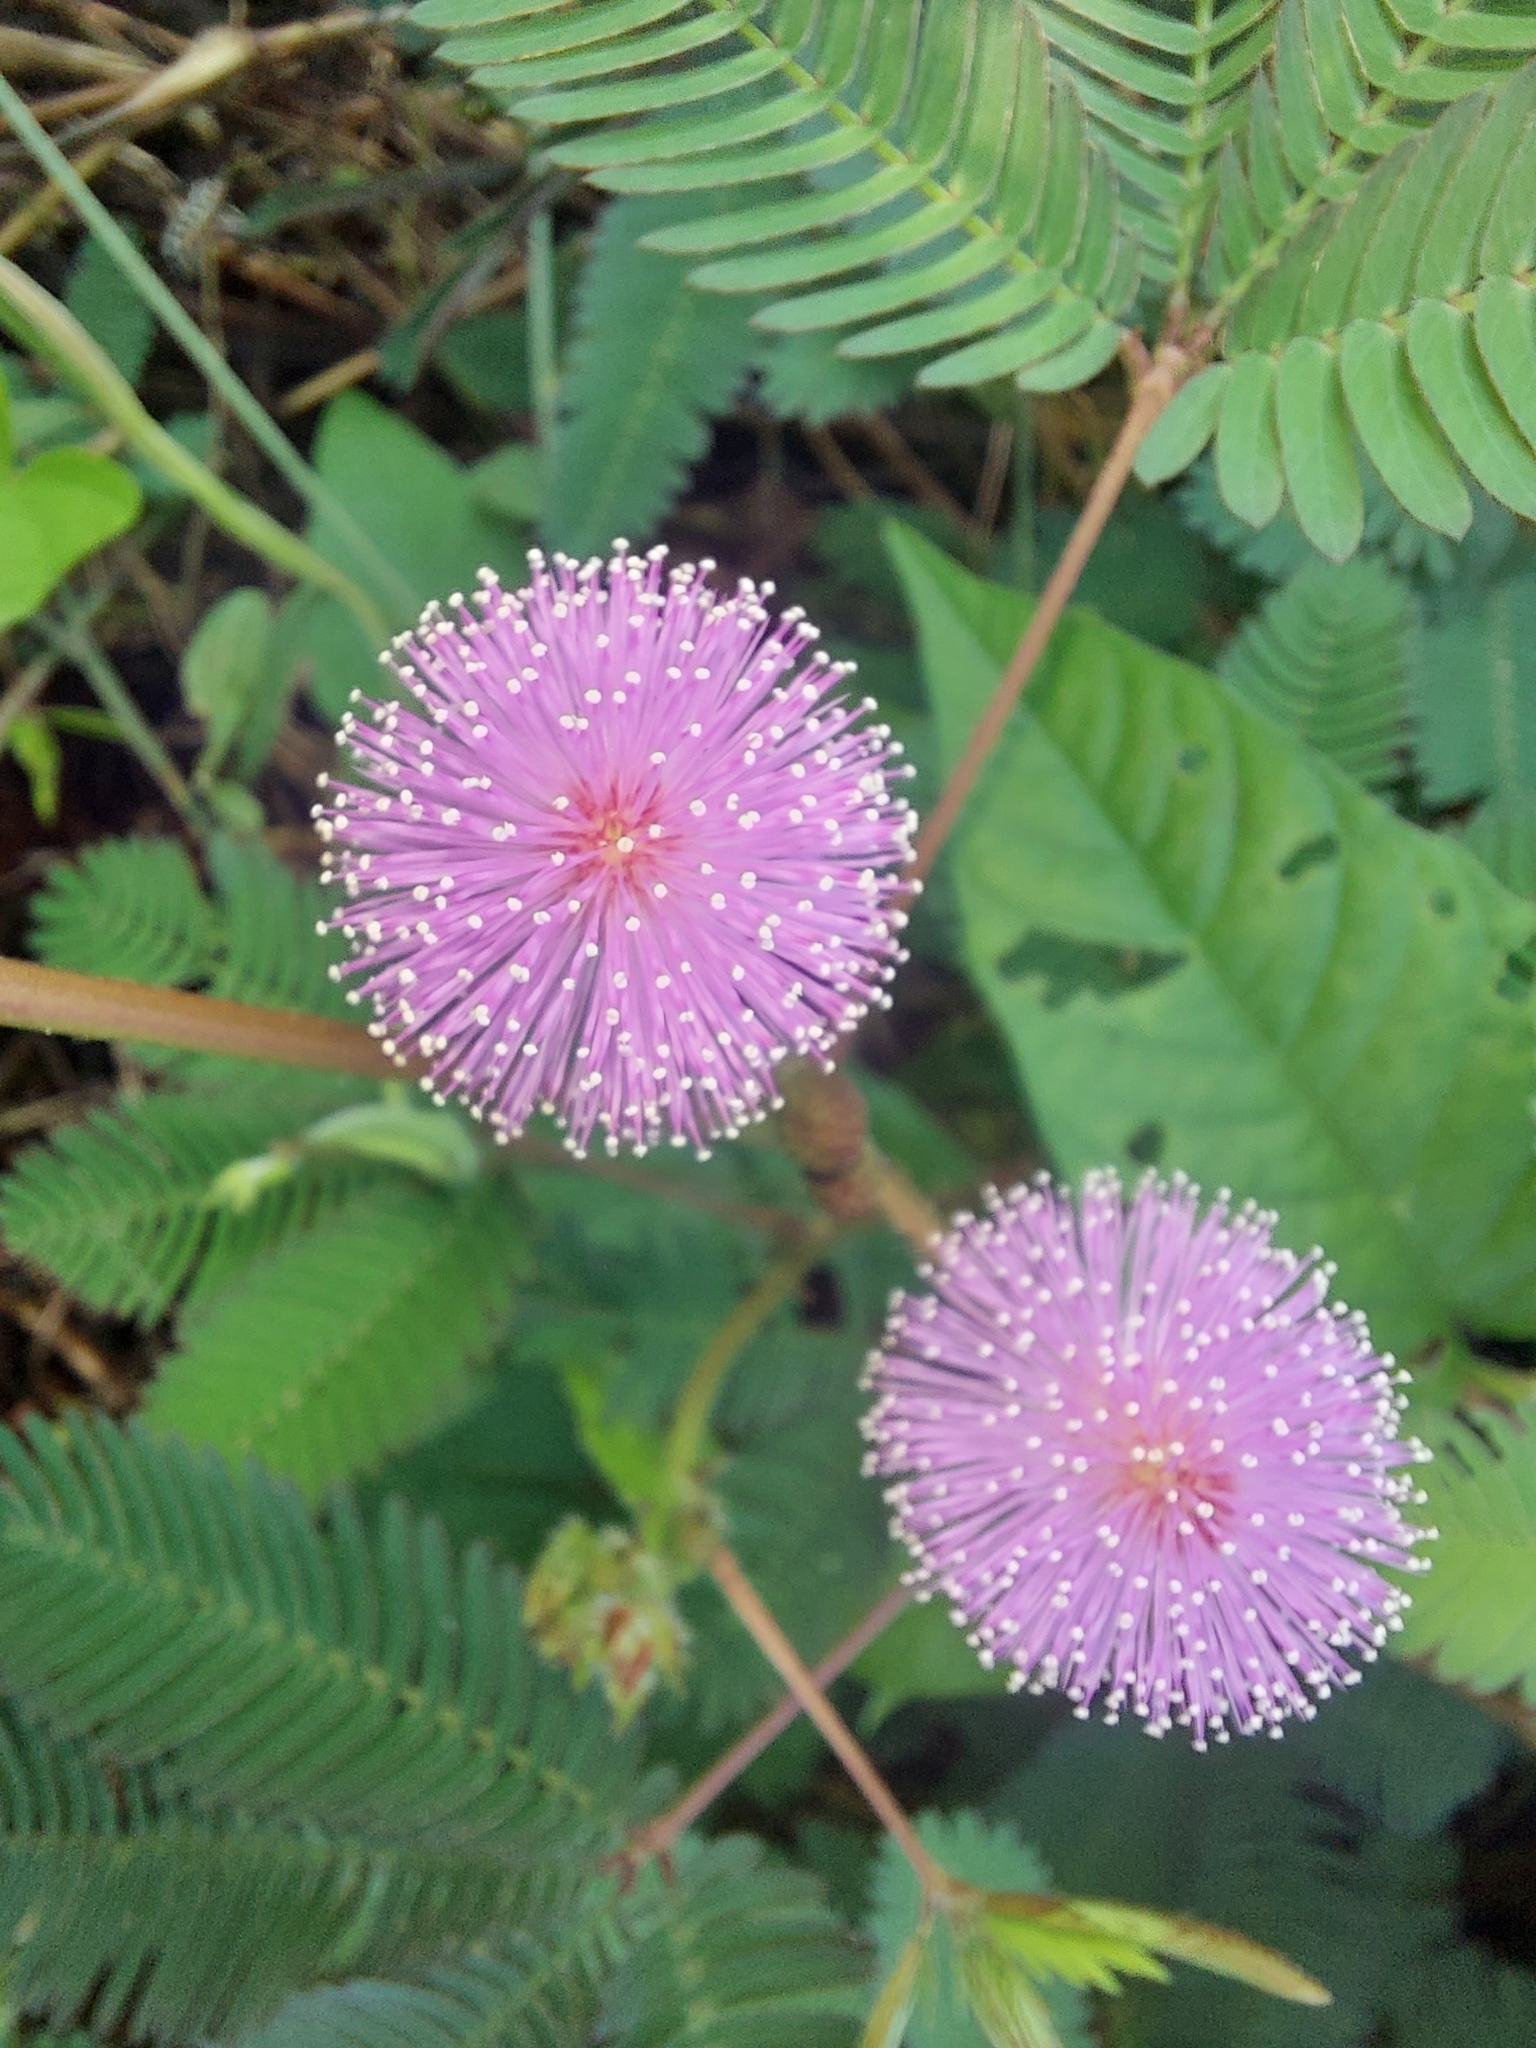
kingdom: Plantae
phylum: Tracheophyta
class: Magnoliopsida
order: Fabales
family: Fabaceae
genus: Mimosa
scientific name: Mimosa pudica
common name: Sensitive plant
